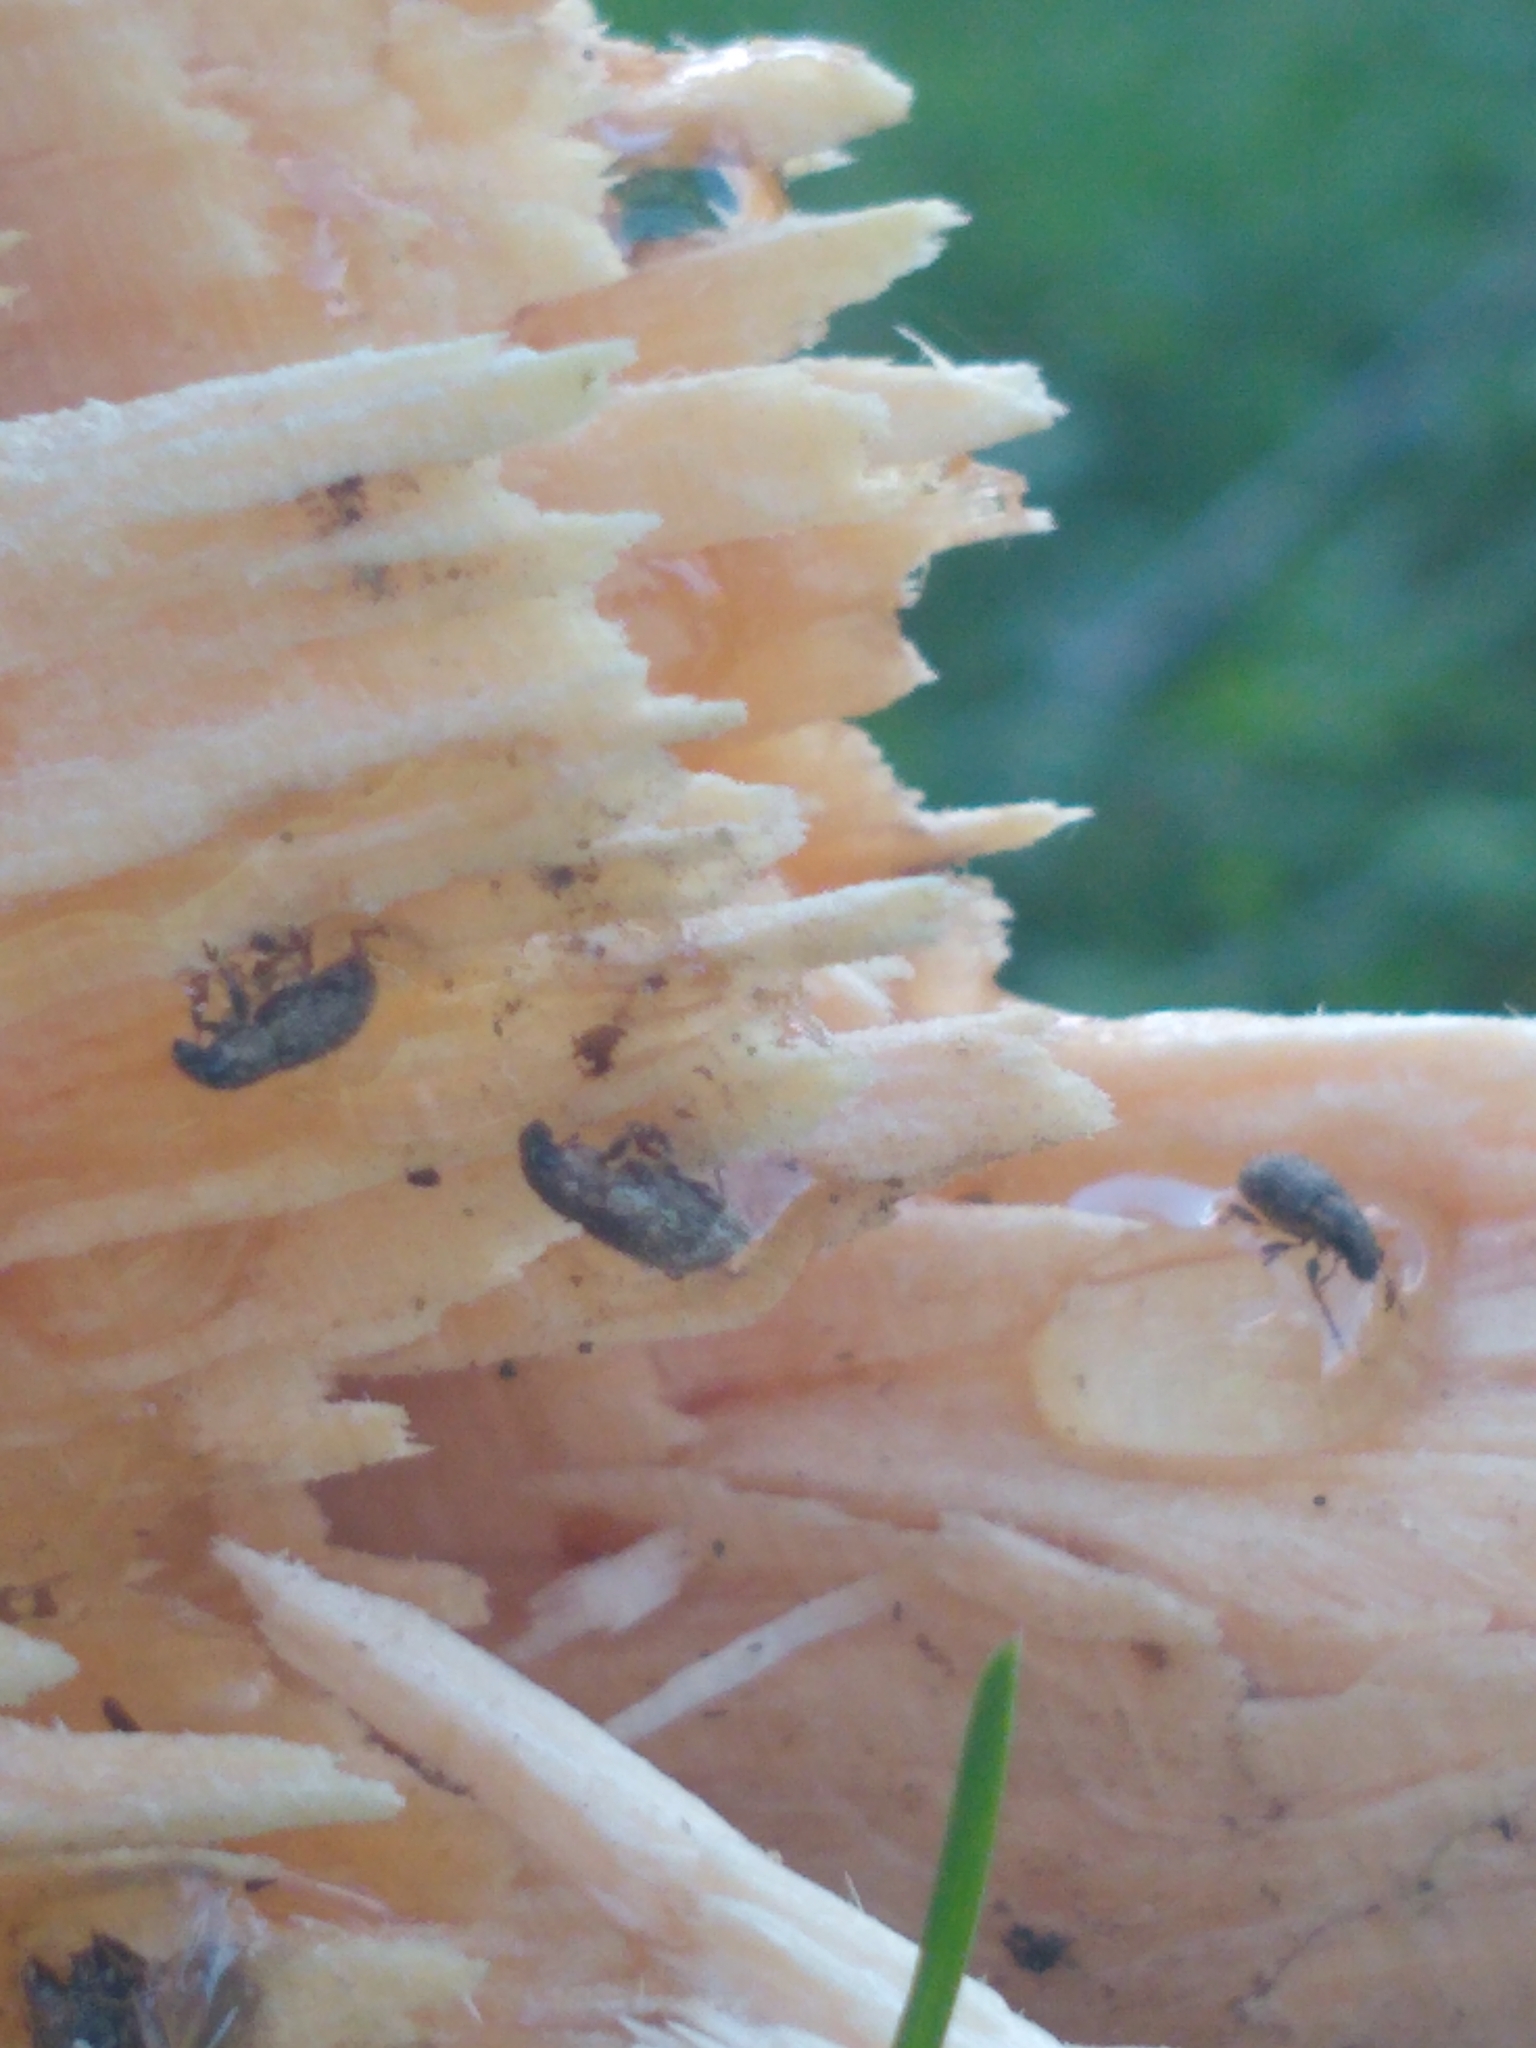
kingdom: Animalia
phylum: Arthropoda
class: Insecta
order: Coleoptera
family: Curculionidae
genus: Sitona
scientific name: Sitona hispidulus
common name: Clover weevil
